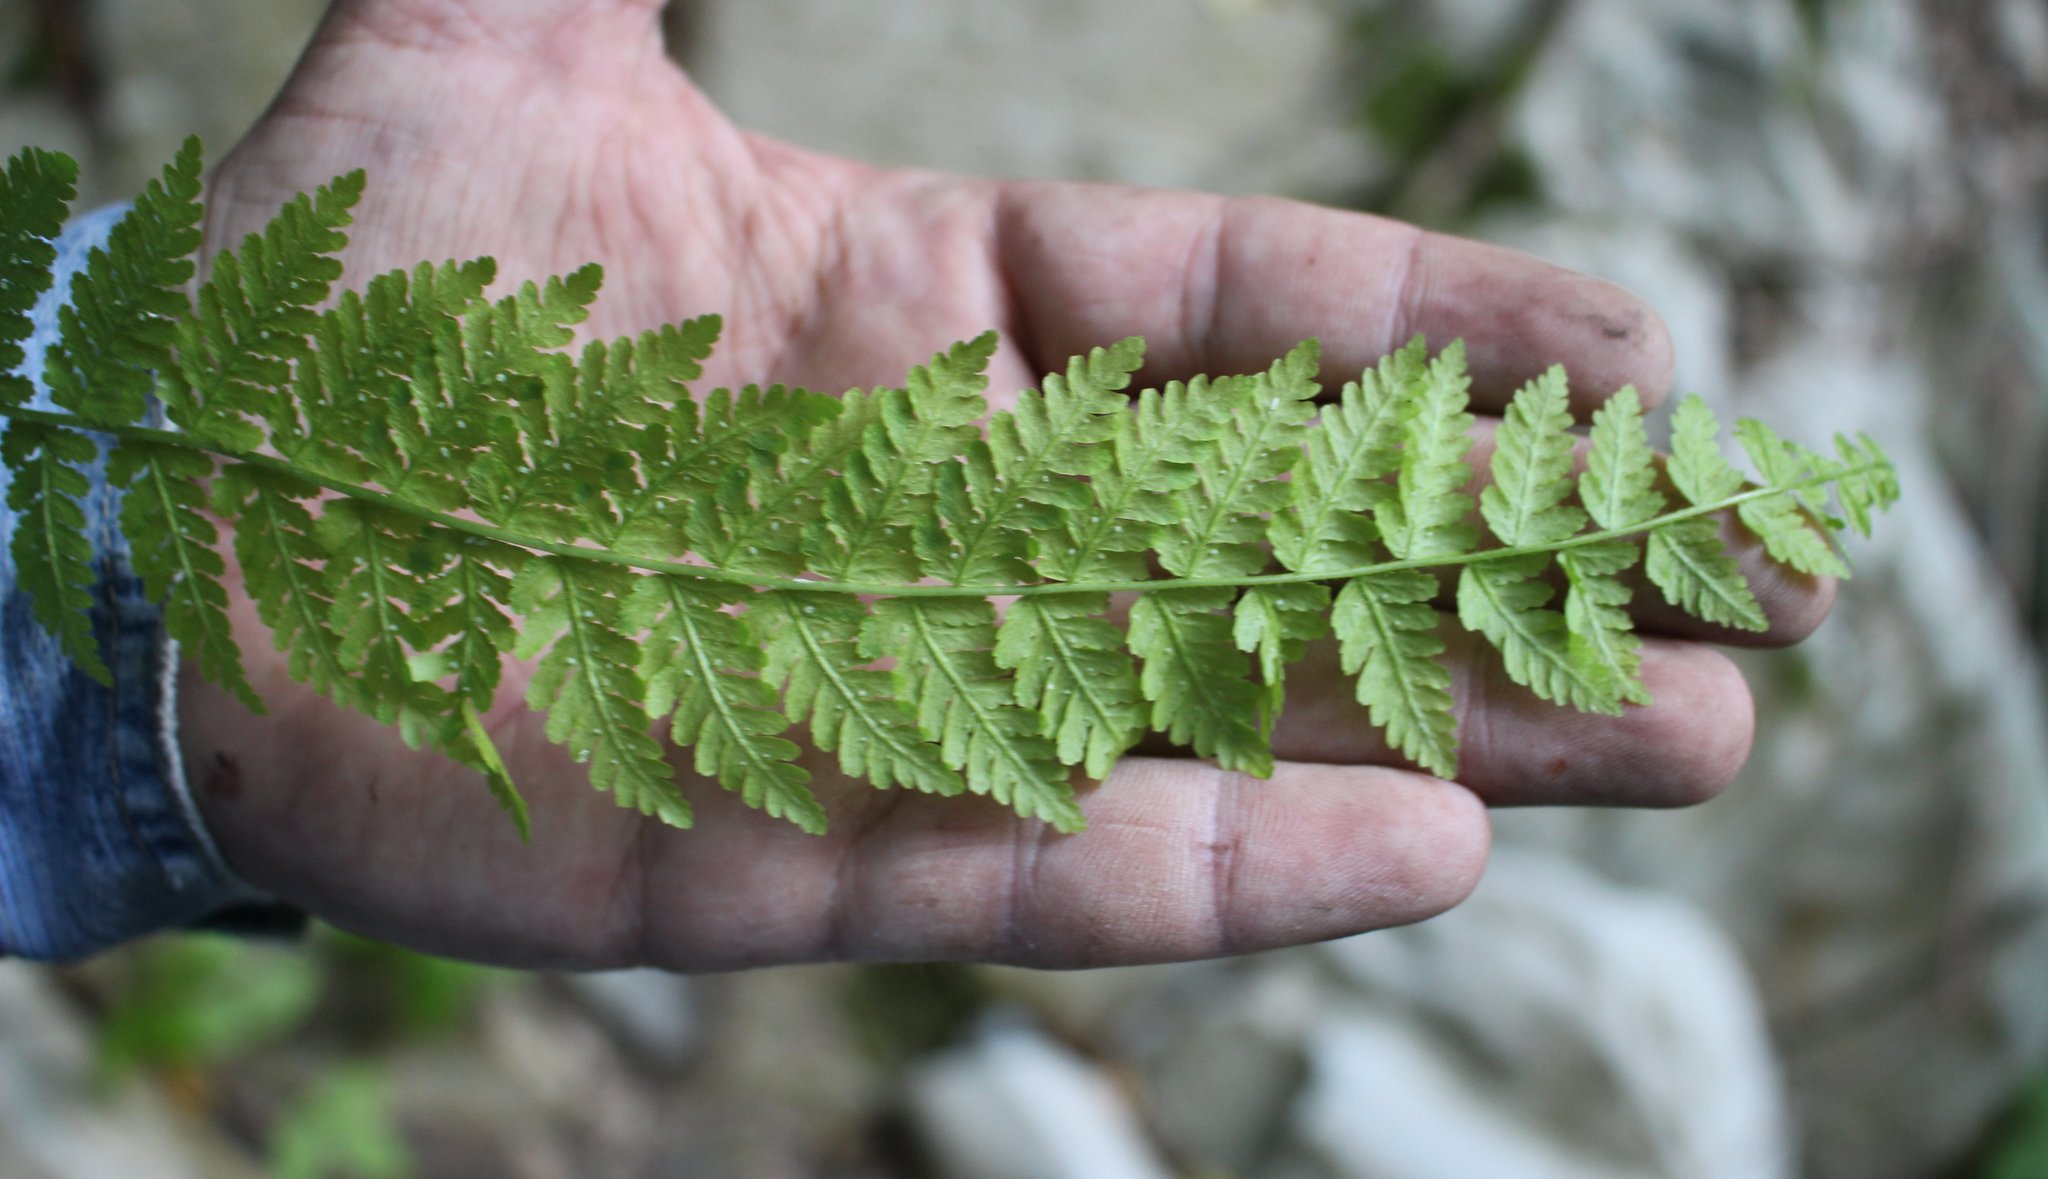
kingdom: Plantae
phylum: Tracheophyta
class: Polypodiopsida
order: Polypodiales
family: Woodsiaceae
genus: Physematium
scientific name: Physematium fragile
